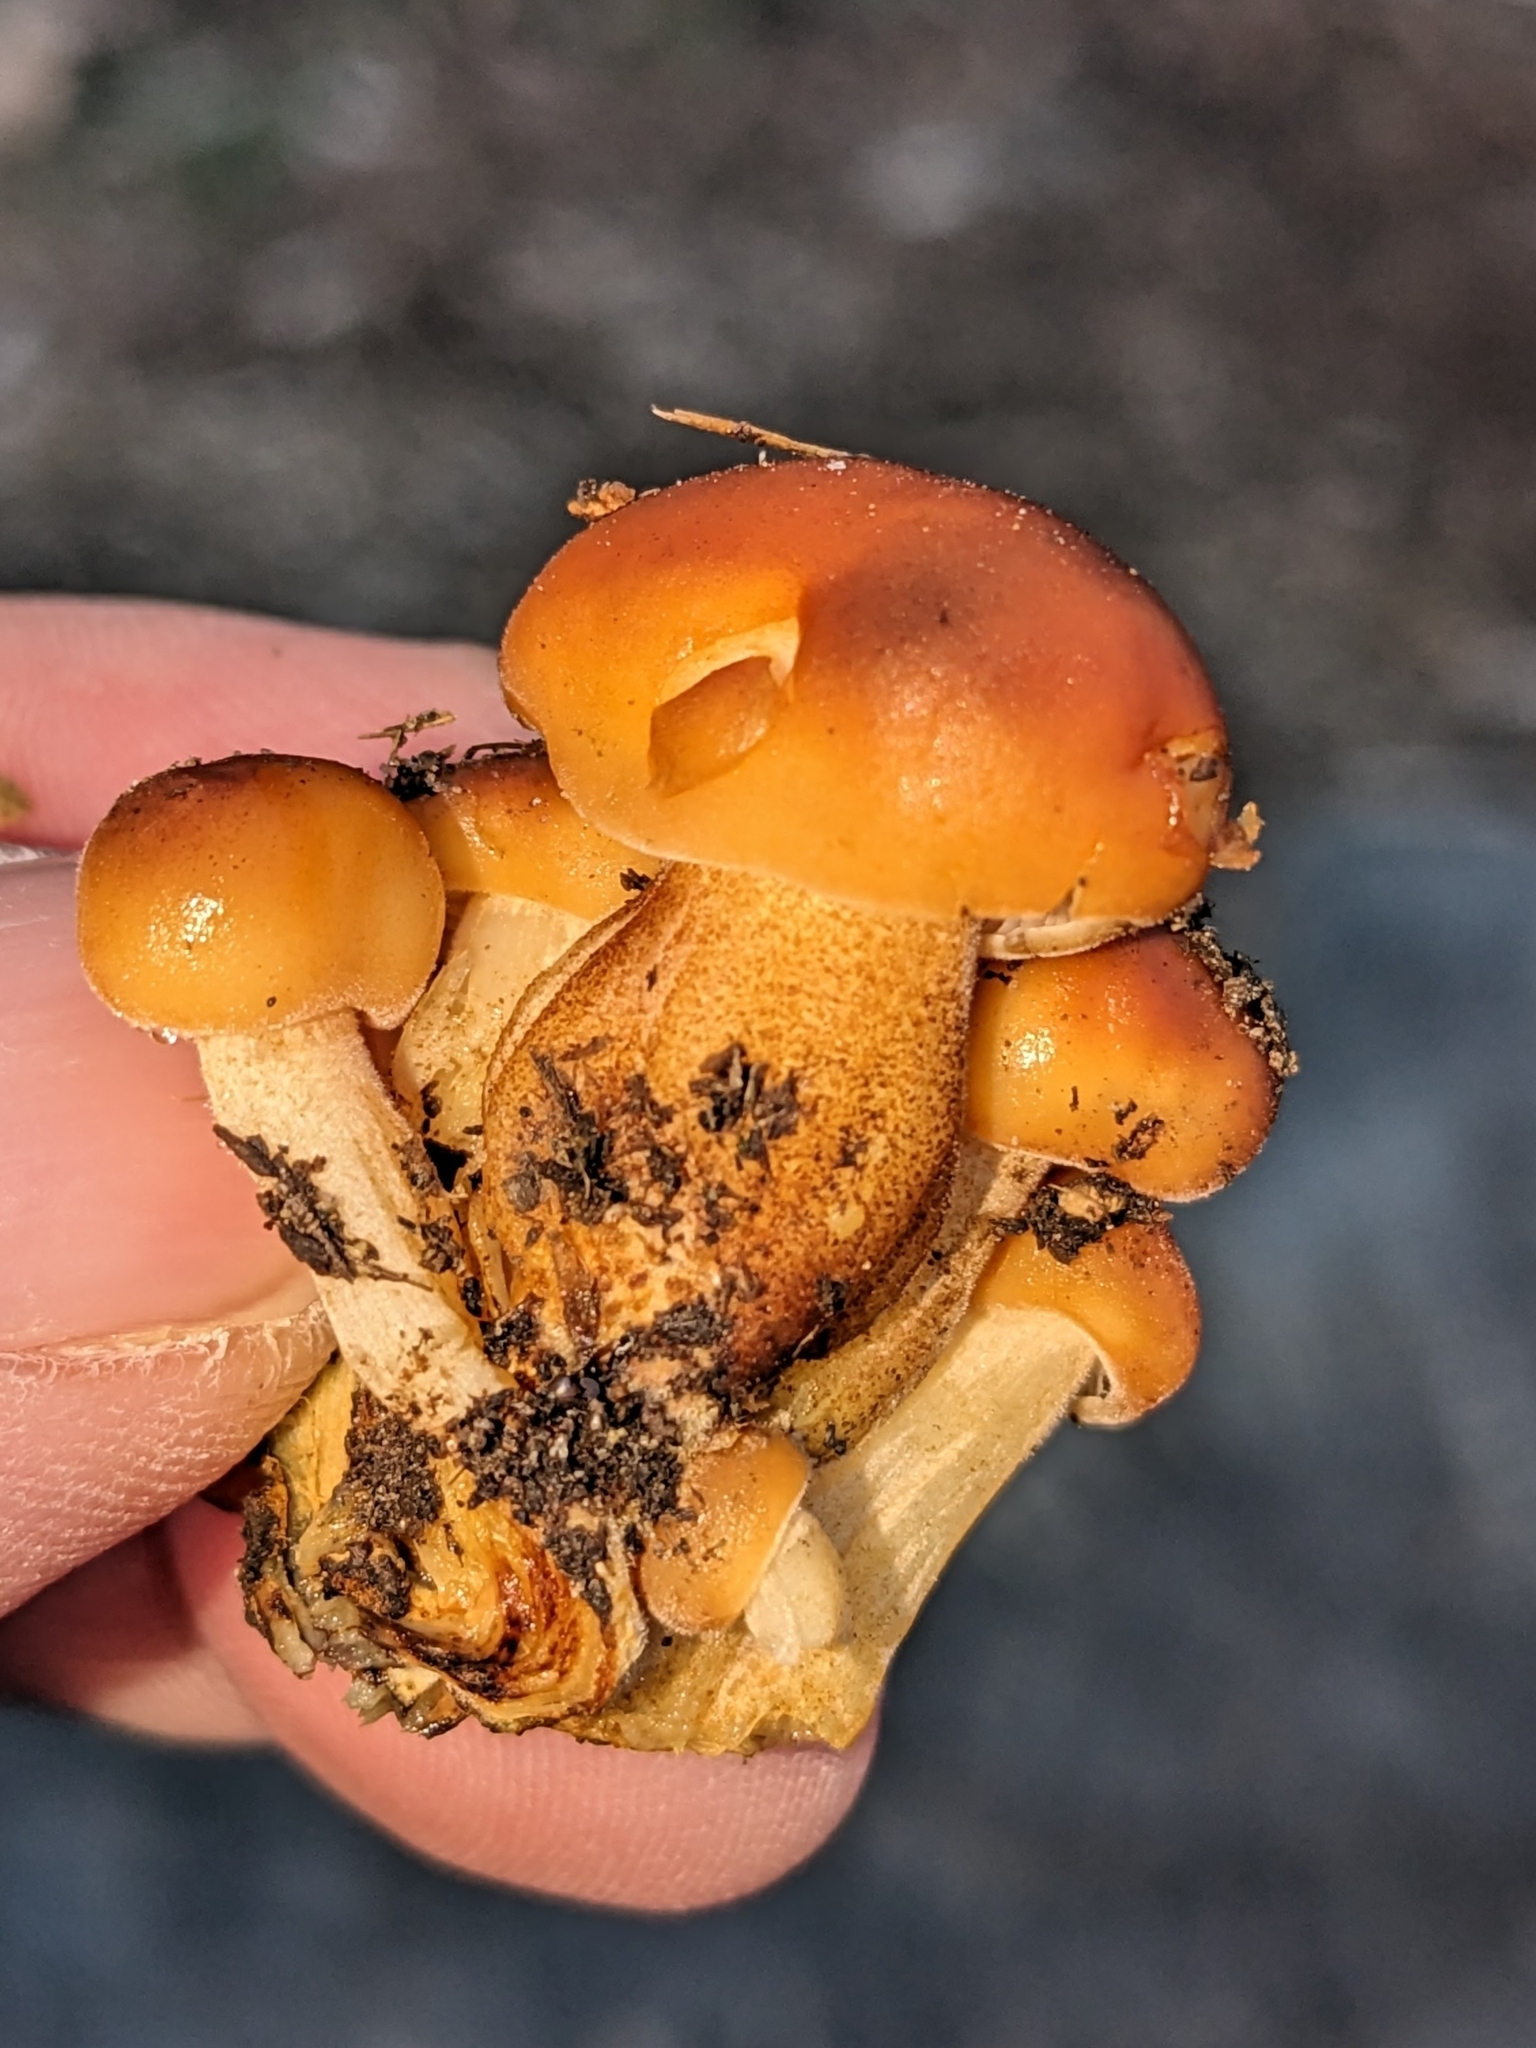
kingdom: Fungi
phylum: Basidiomycota
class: Agaricomycetes
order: Agaricales
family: Physalacriaceae
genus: Flammulina
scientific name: Flammulina velutipes
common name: Velvet shank
